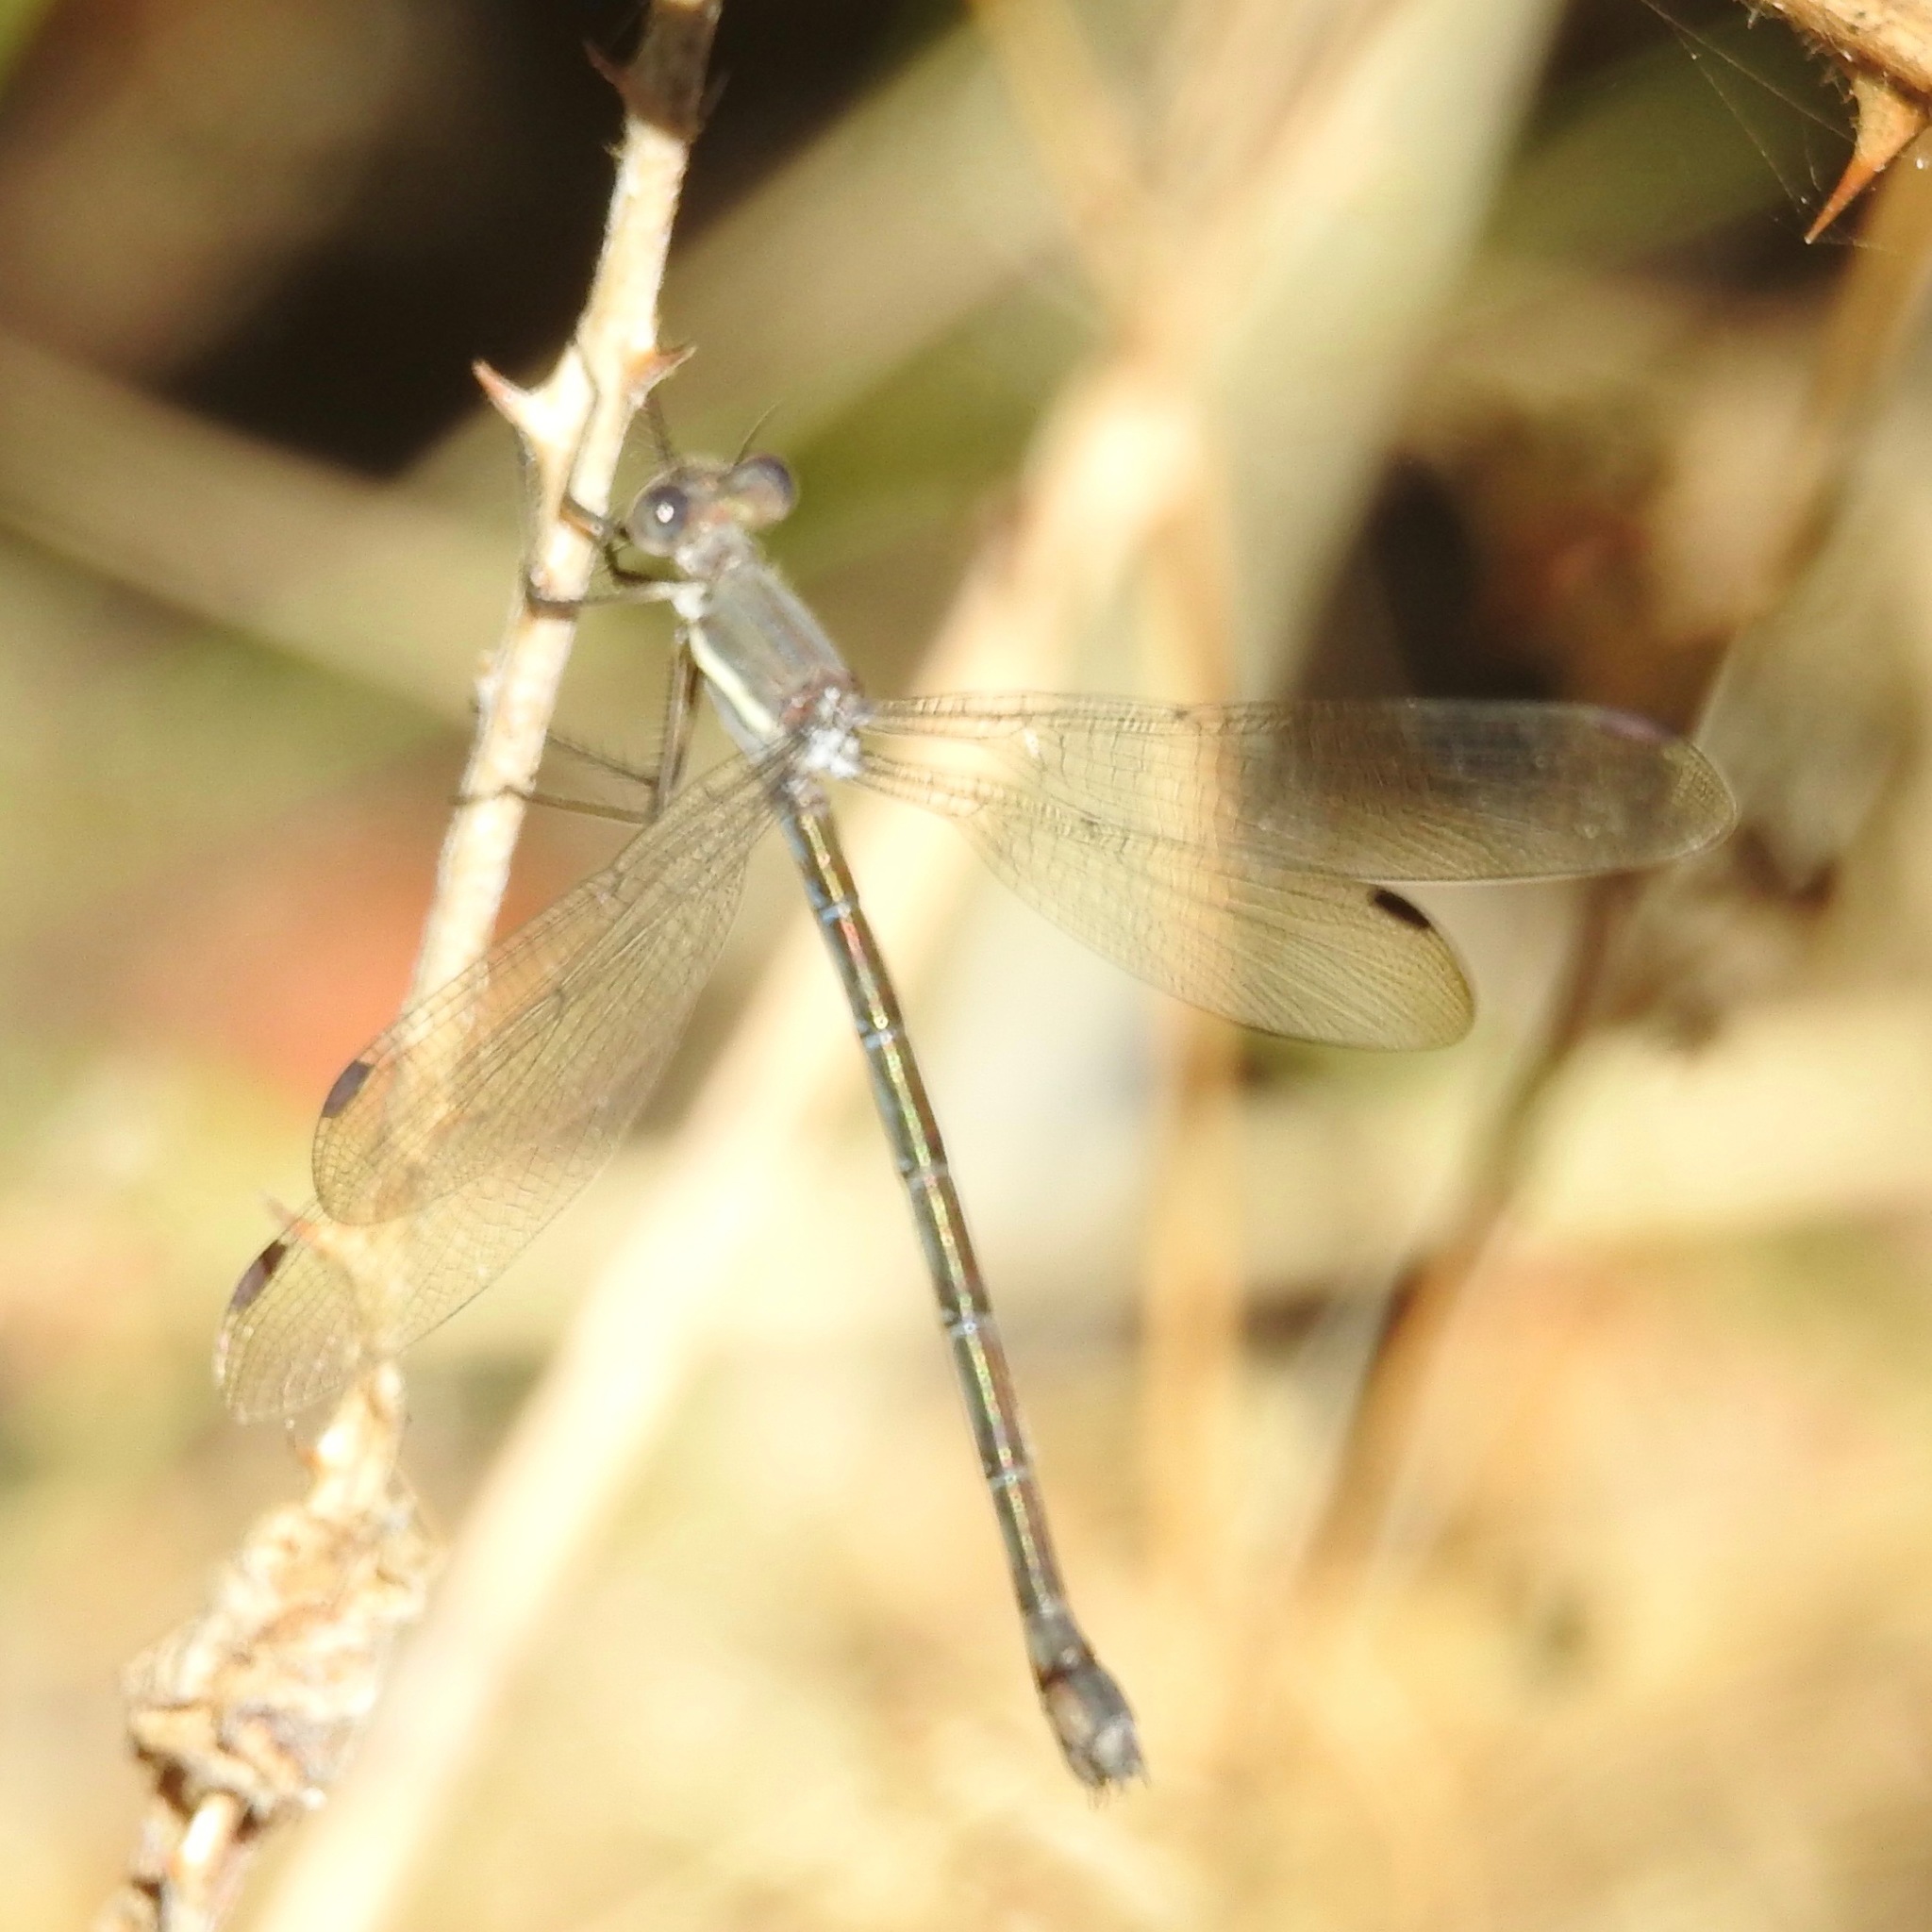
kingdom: Animalia
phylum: Arthropoda
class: Insecta
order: Odonata
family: Lestidae
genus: Archilestes
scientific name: Archilestes grandis
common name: Great spreadwing
